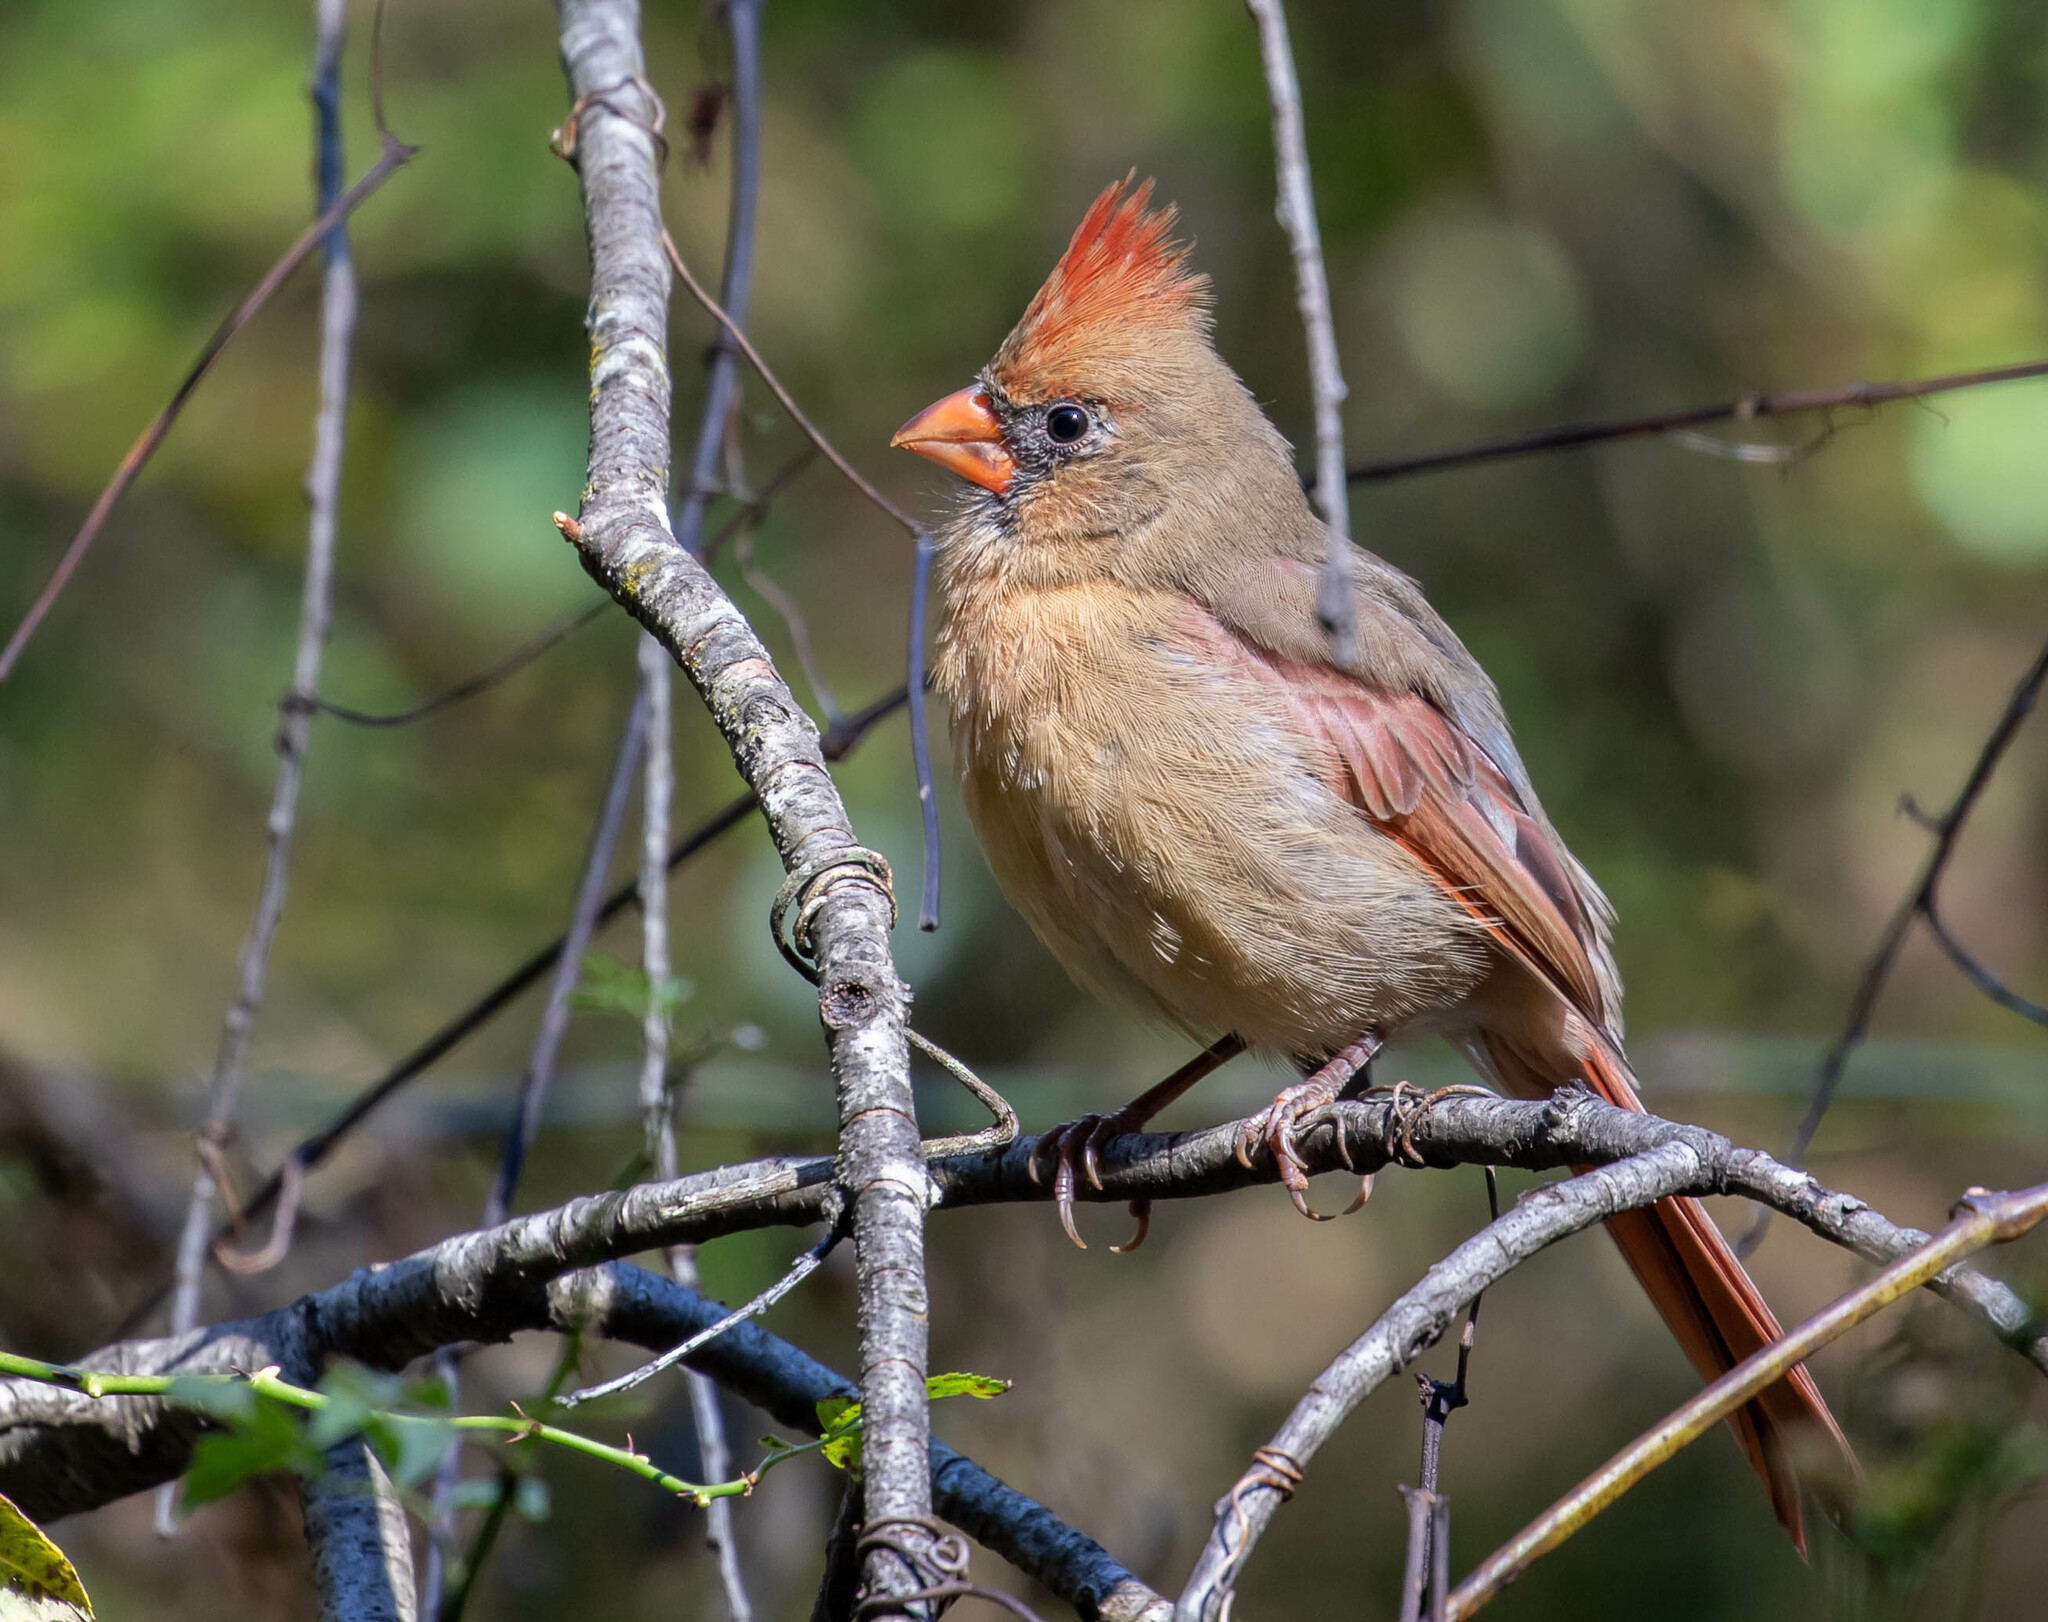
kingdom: Animalia
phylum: Chordata
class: Aves
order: Passeriformes
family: Cardinalidae
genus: Cardinalis
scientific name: Cardinalis cardinalis
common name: Northern cardinal
